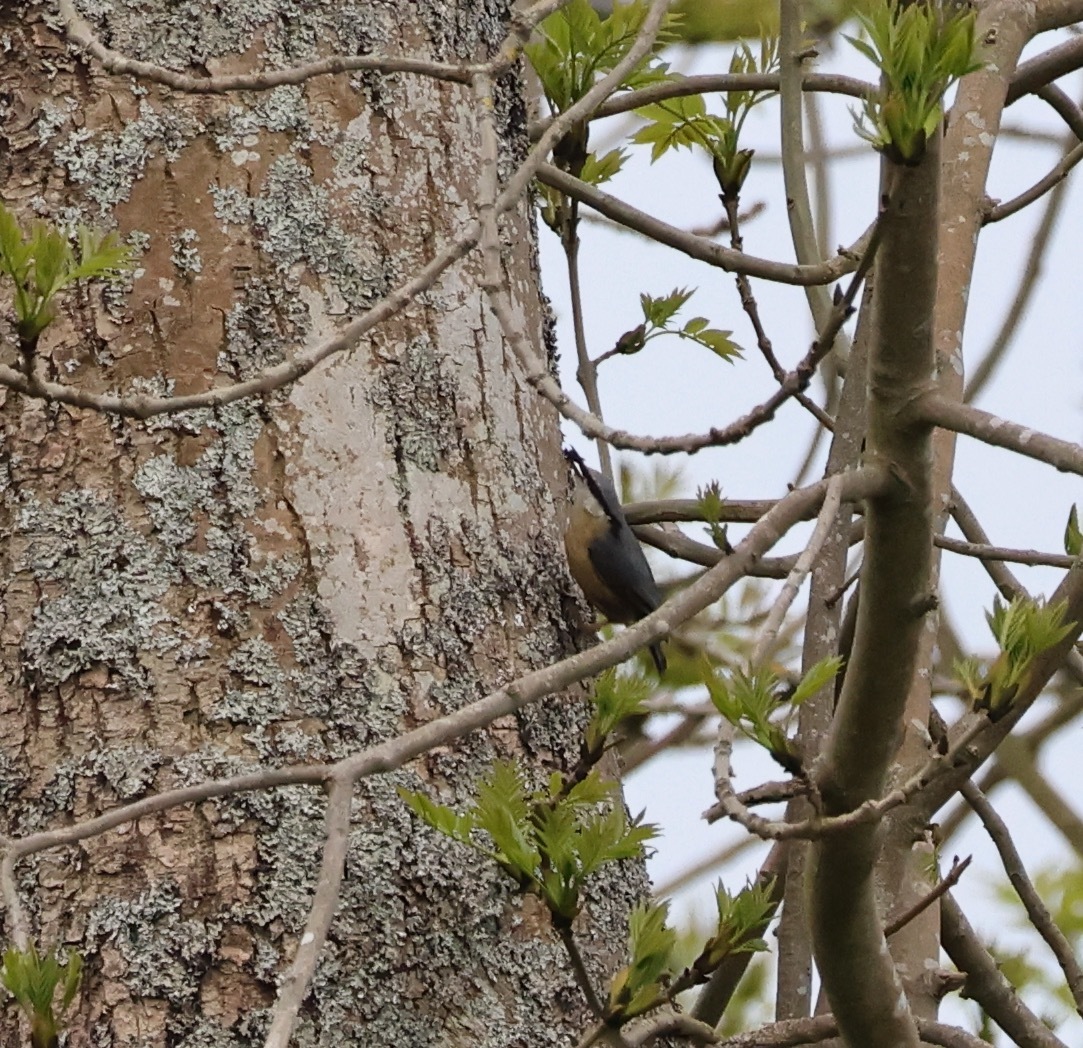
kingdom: Animalia
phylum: Chordata
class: Aves
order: Passeriformes
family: Sittidae
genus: Sitta
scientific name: Sitta europaea
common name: Eurasian nuthatch
